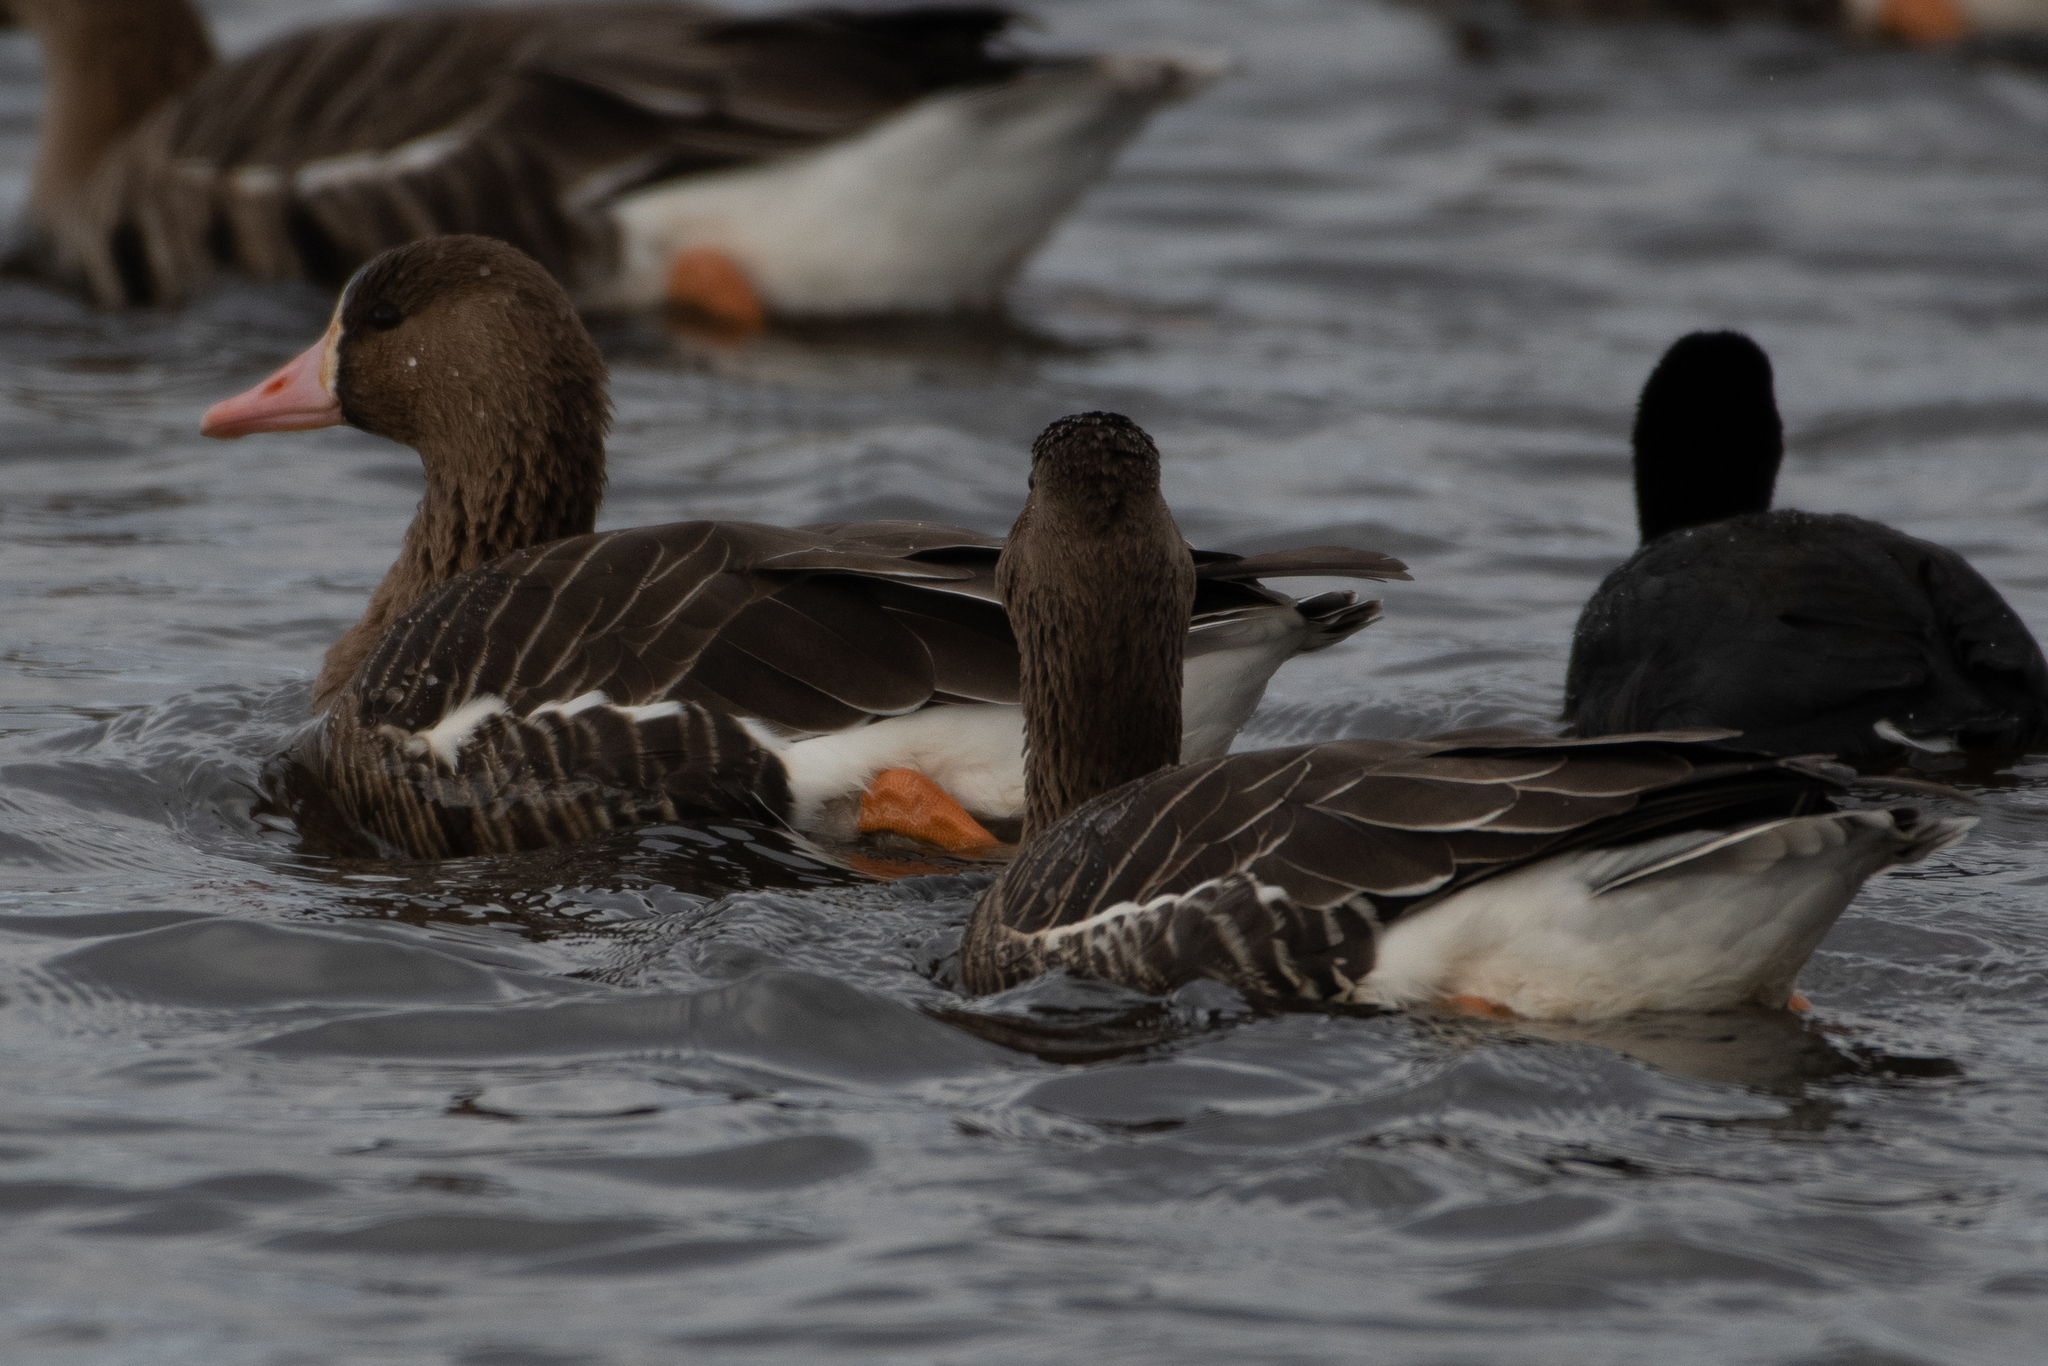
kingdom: Animalia
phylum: Chordata
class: Aves
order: Anseriformes
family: Anatidae
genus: Anser
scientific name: Anser albifrons
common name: Greater white-fronted goose
